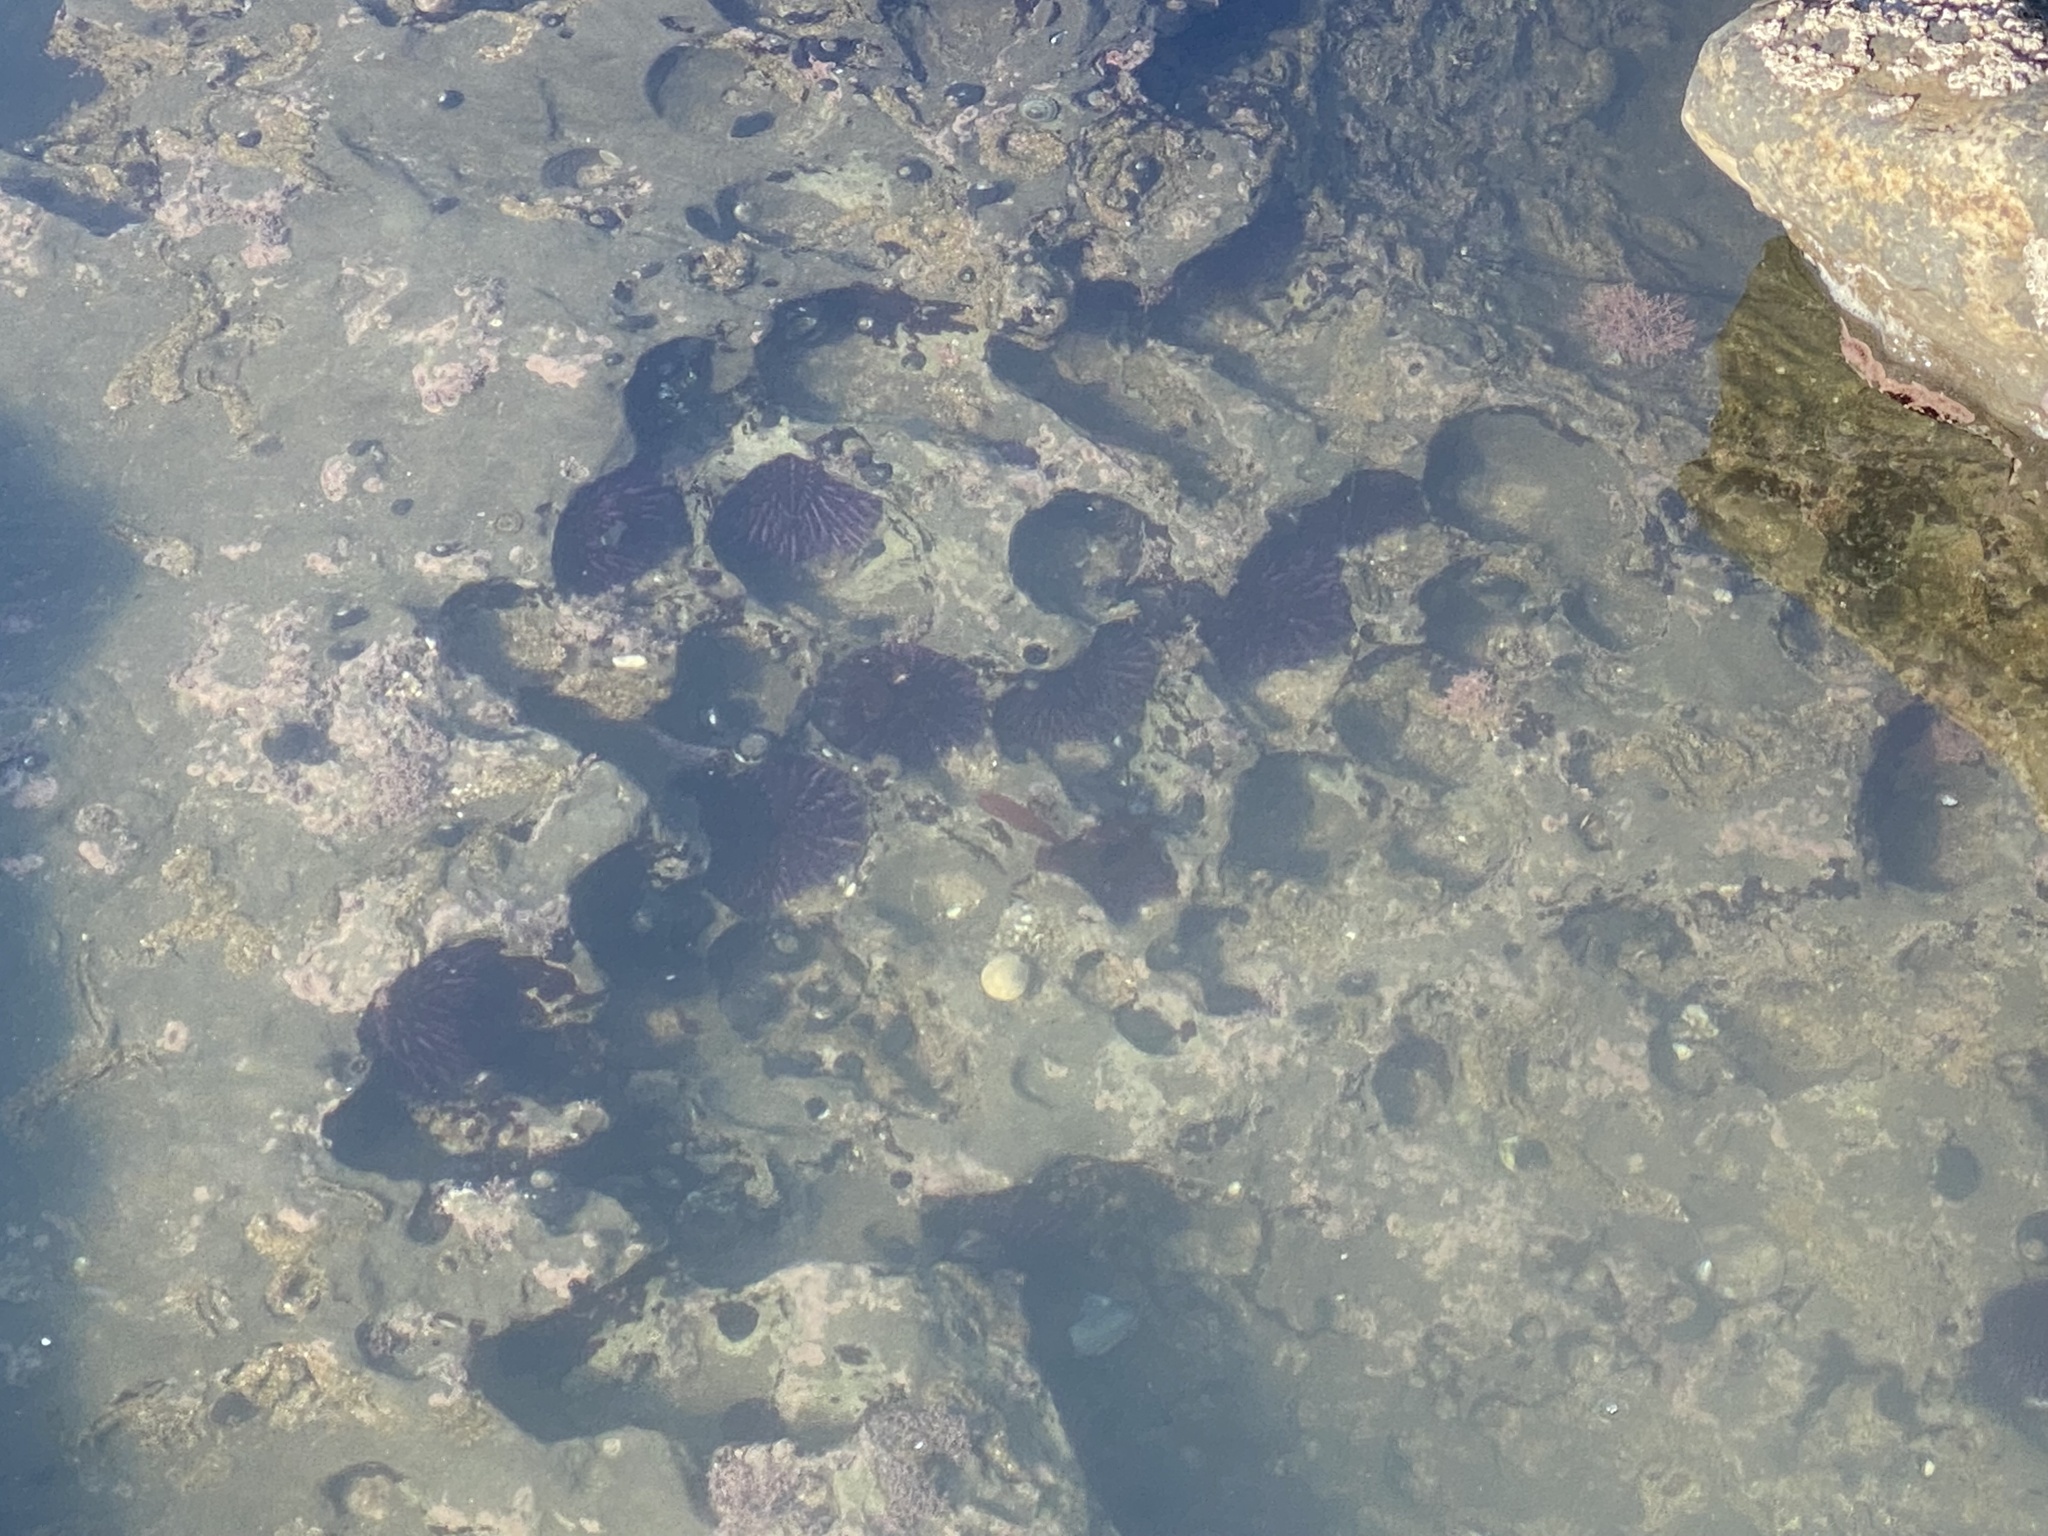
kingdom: Animalia
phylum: Echinodermata
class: Echinoidea
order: Camarodonta
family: Strongylocentrotidae
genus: Strongylocentrotus
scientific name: Strongylocentrotus purpuratus
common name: Purple sea urchin
